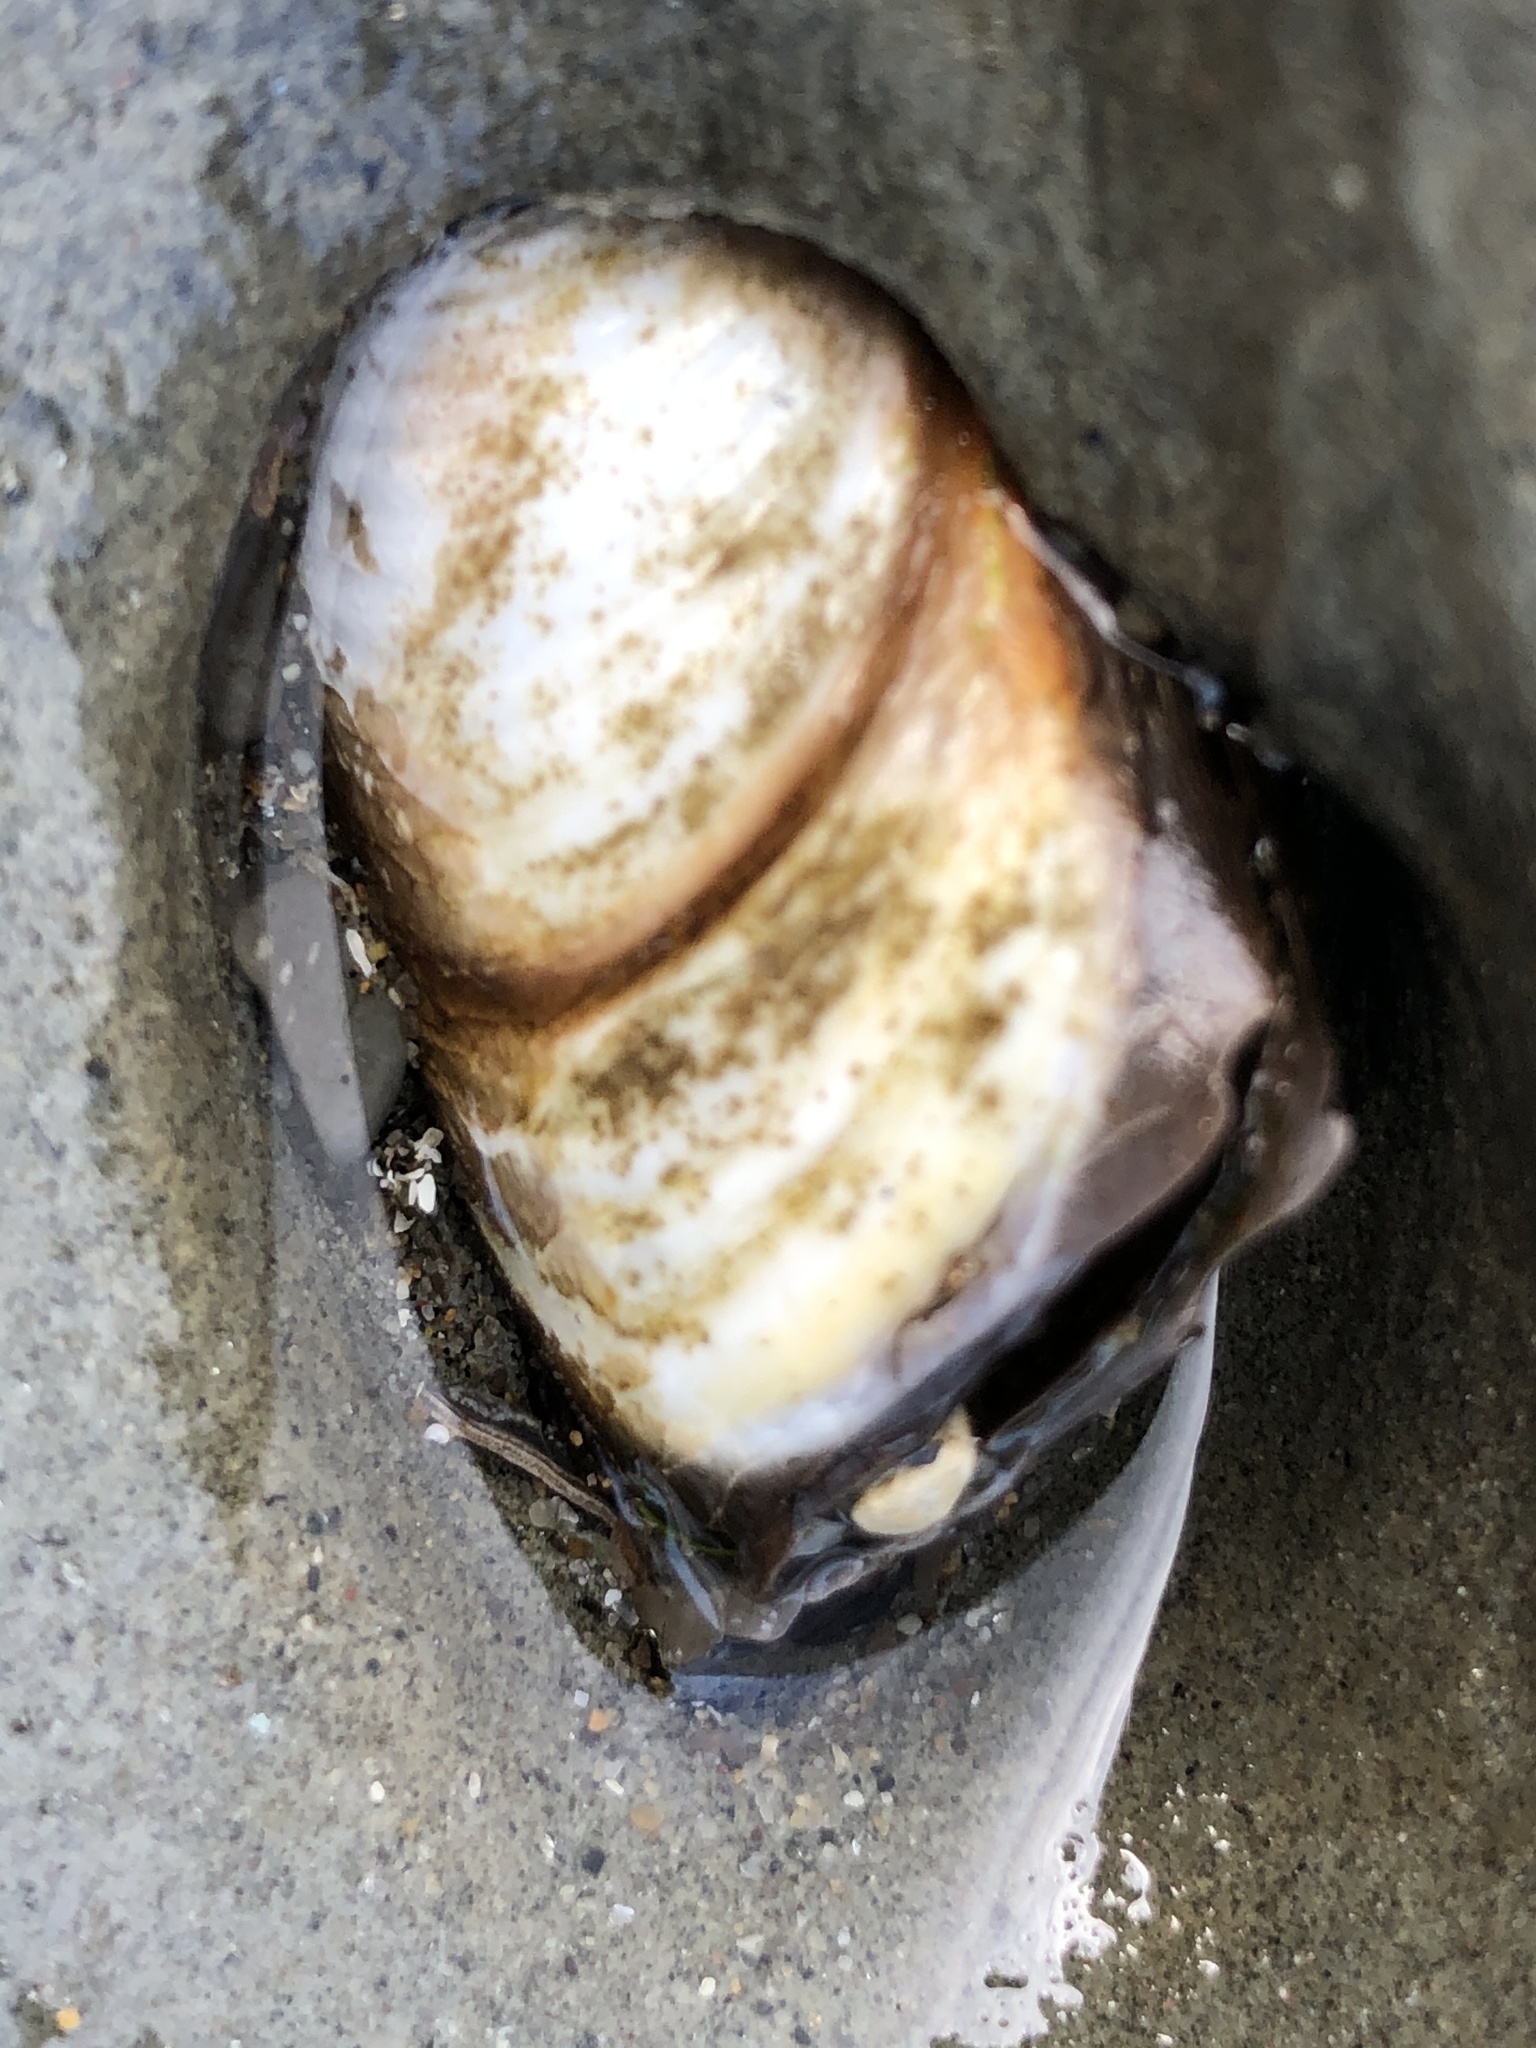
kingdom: Animalia
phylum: Mollusca
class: Bivalvia
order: Myida
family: Pholadidae
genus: Parapholas
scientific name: Parapholas californica
